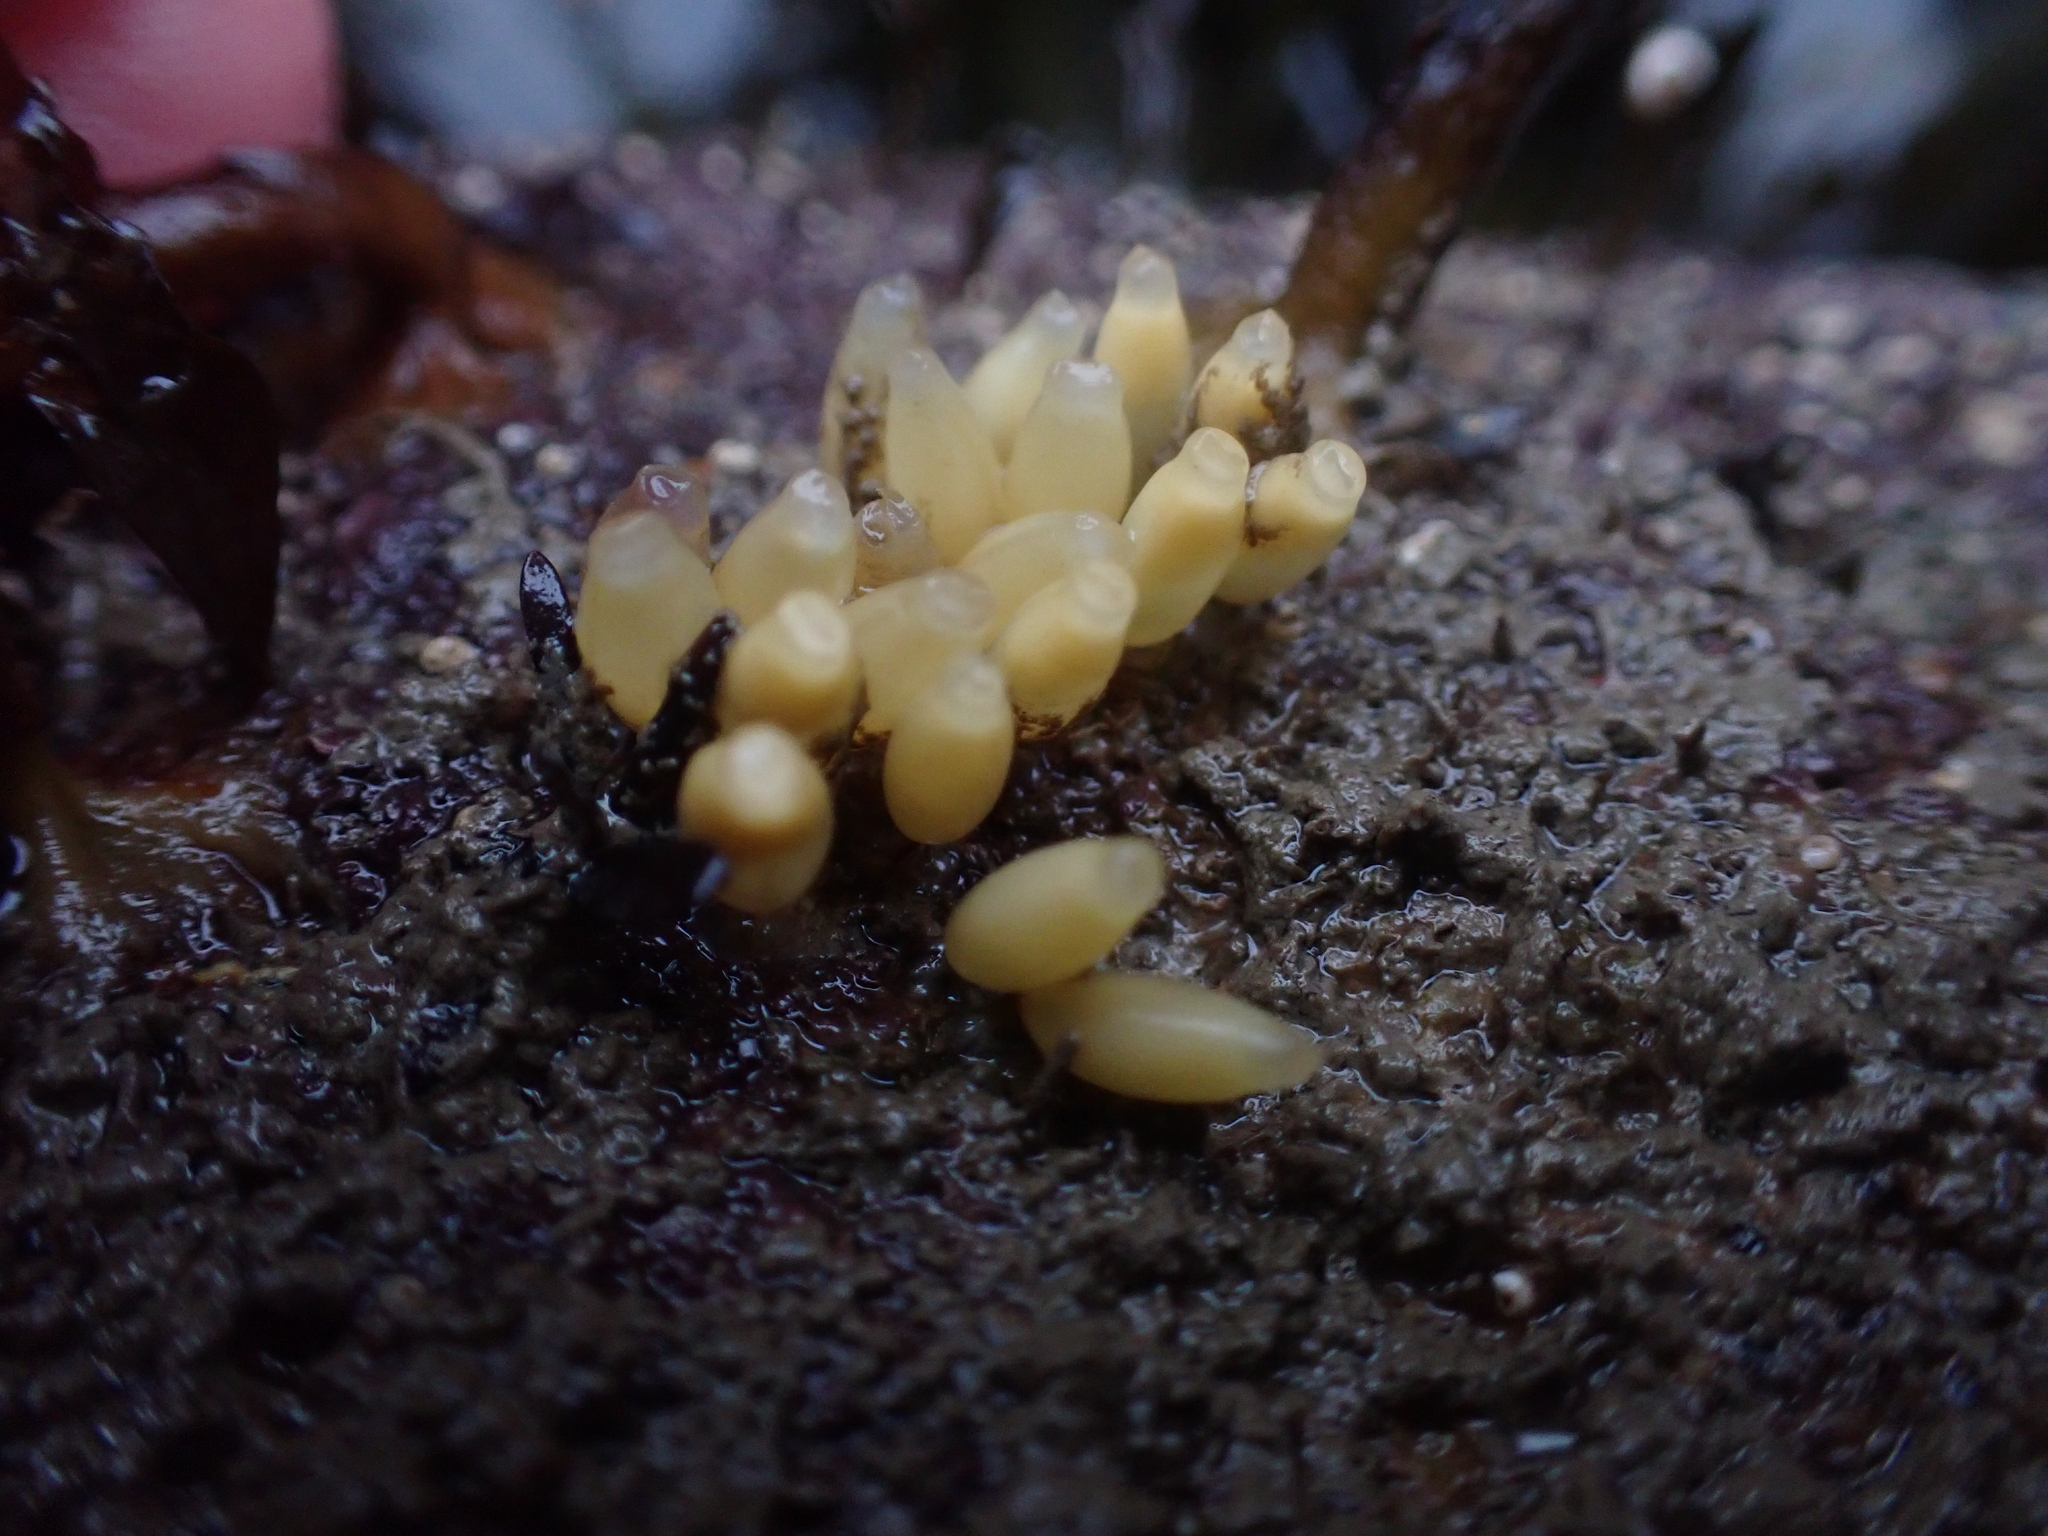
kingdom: Animalia
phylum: Mollusca
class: Gastropoda
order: Neogastropoda
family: Muricidae
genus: Nucella
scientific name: Nucella lapillus
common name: Dog whelk
